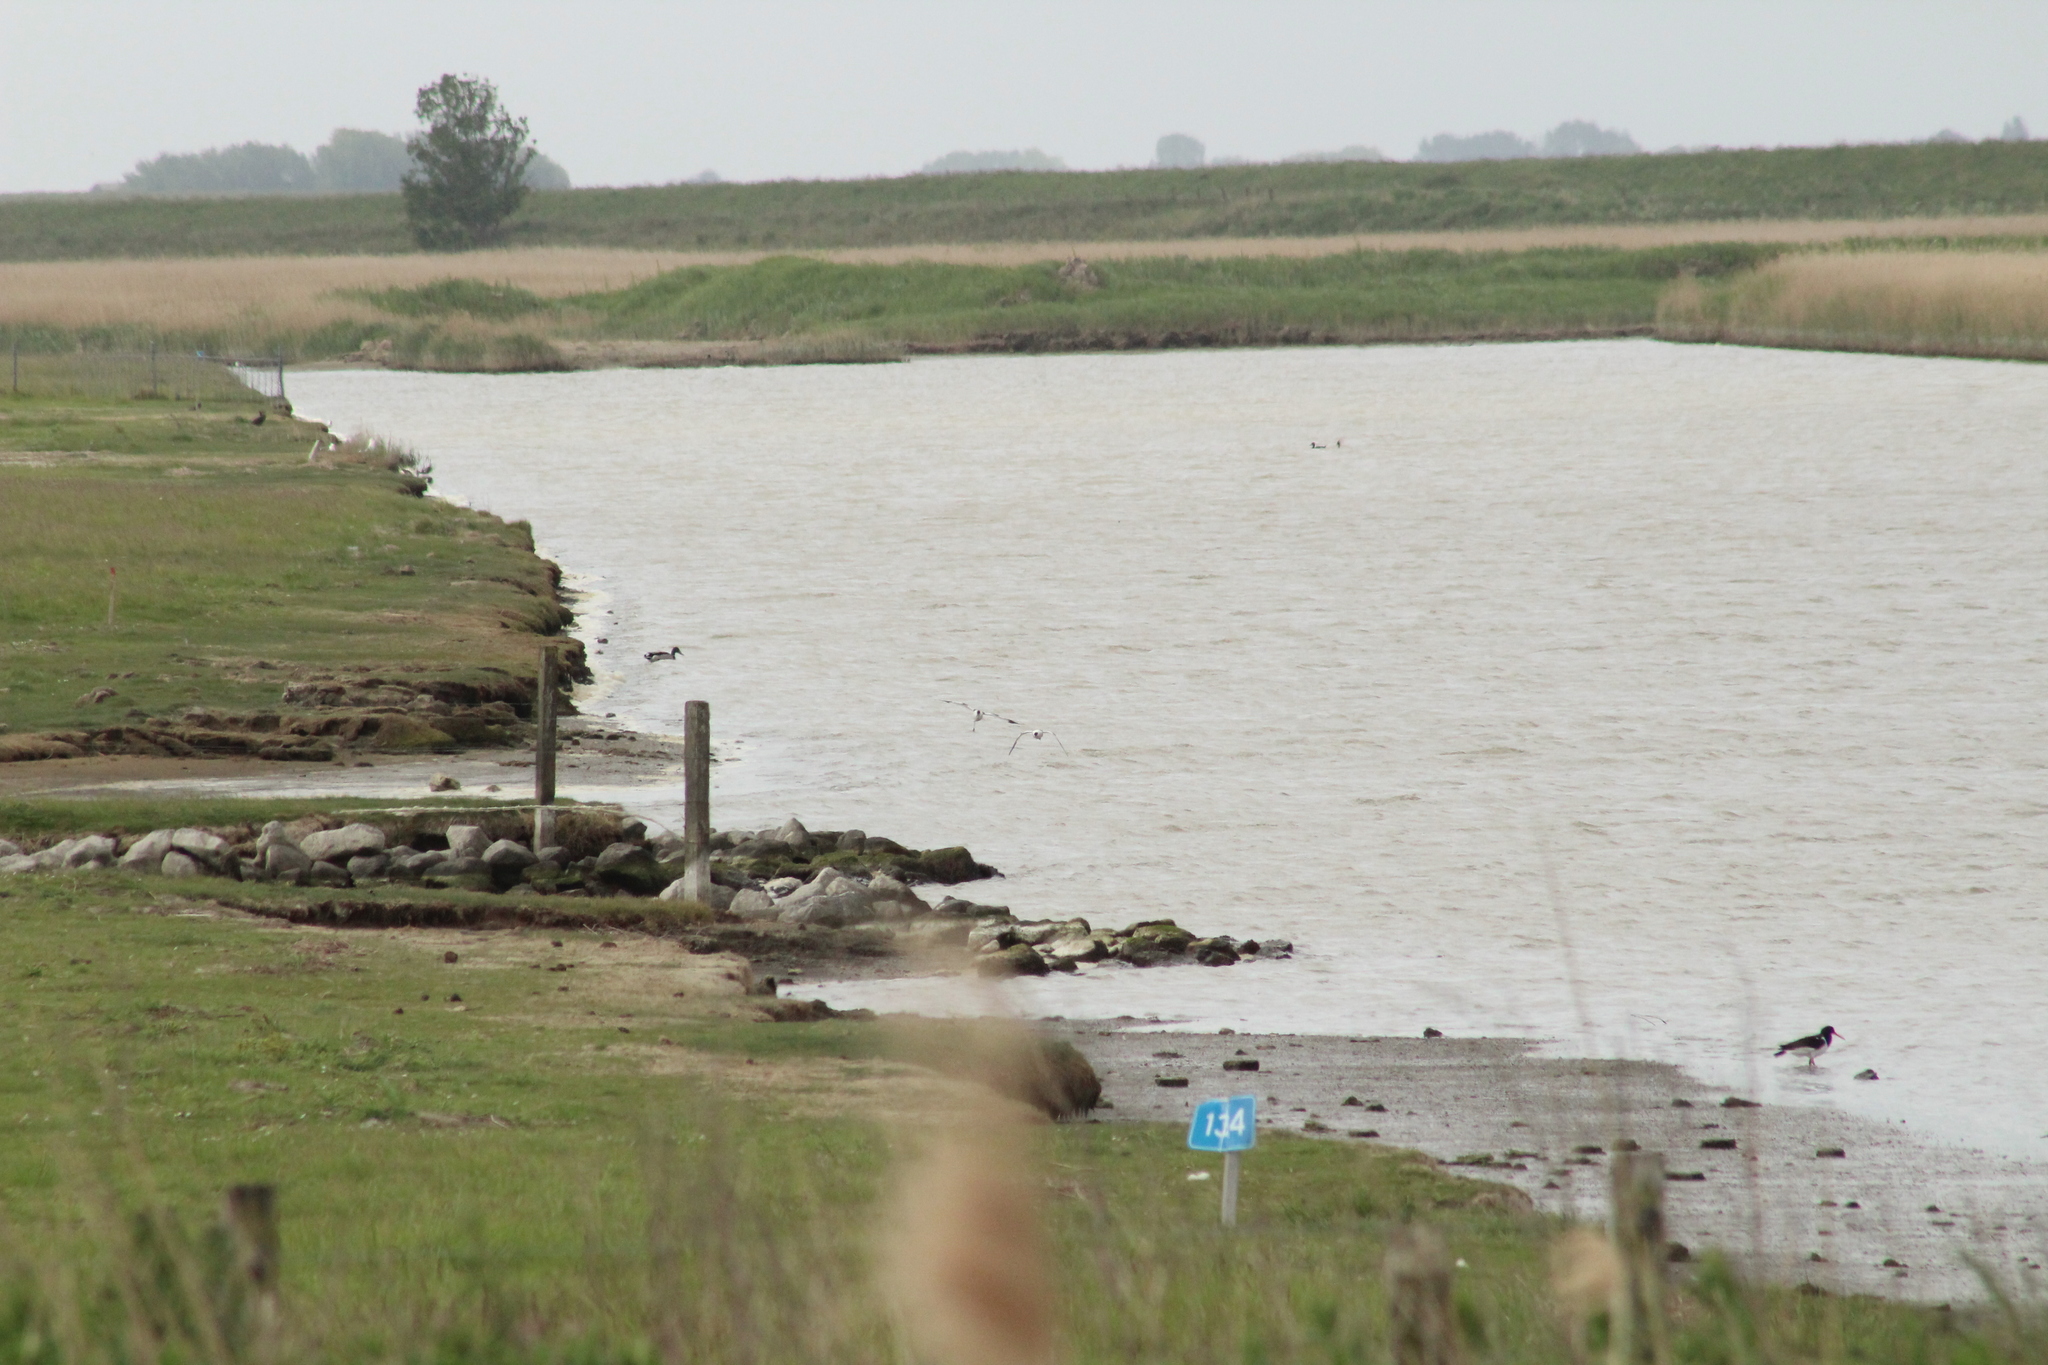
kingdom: Animalia
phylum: Chordata
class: Aves
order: Charadriiformes
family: Recurvirostridae
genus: Recurvirostra
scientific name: Recurvirostra avosetta
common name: Pied avocet
